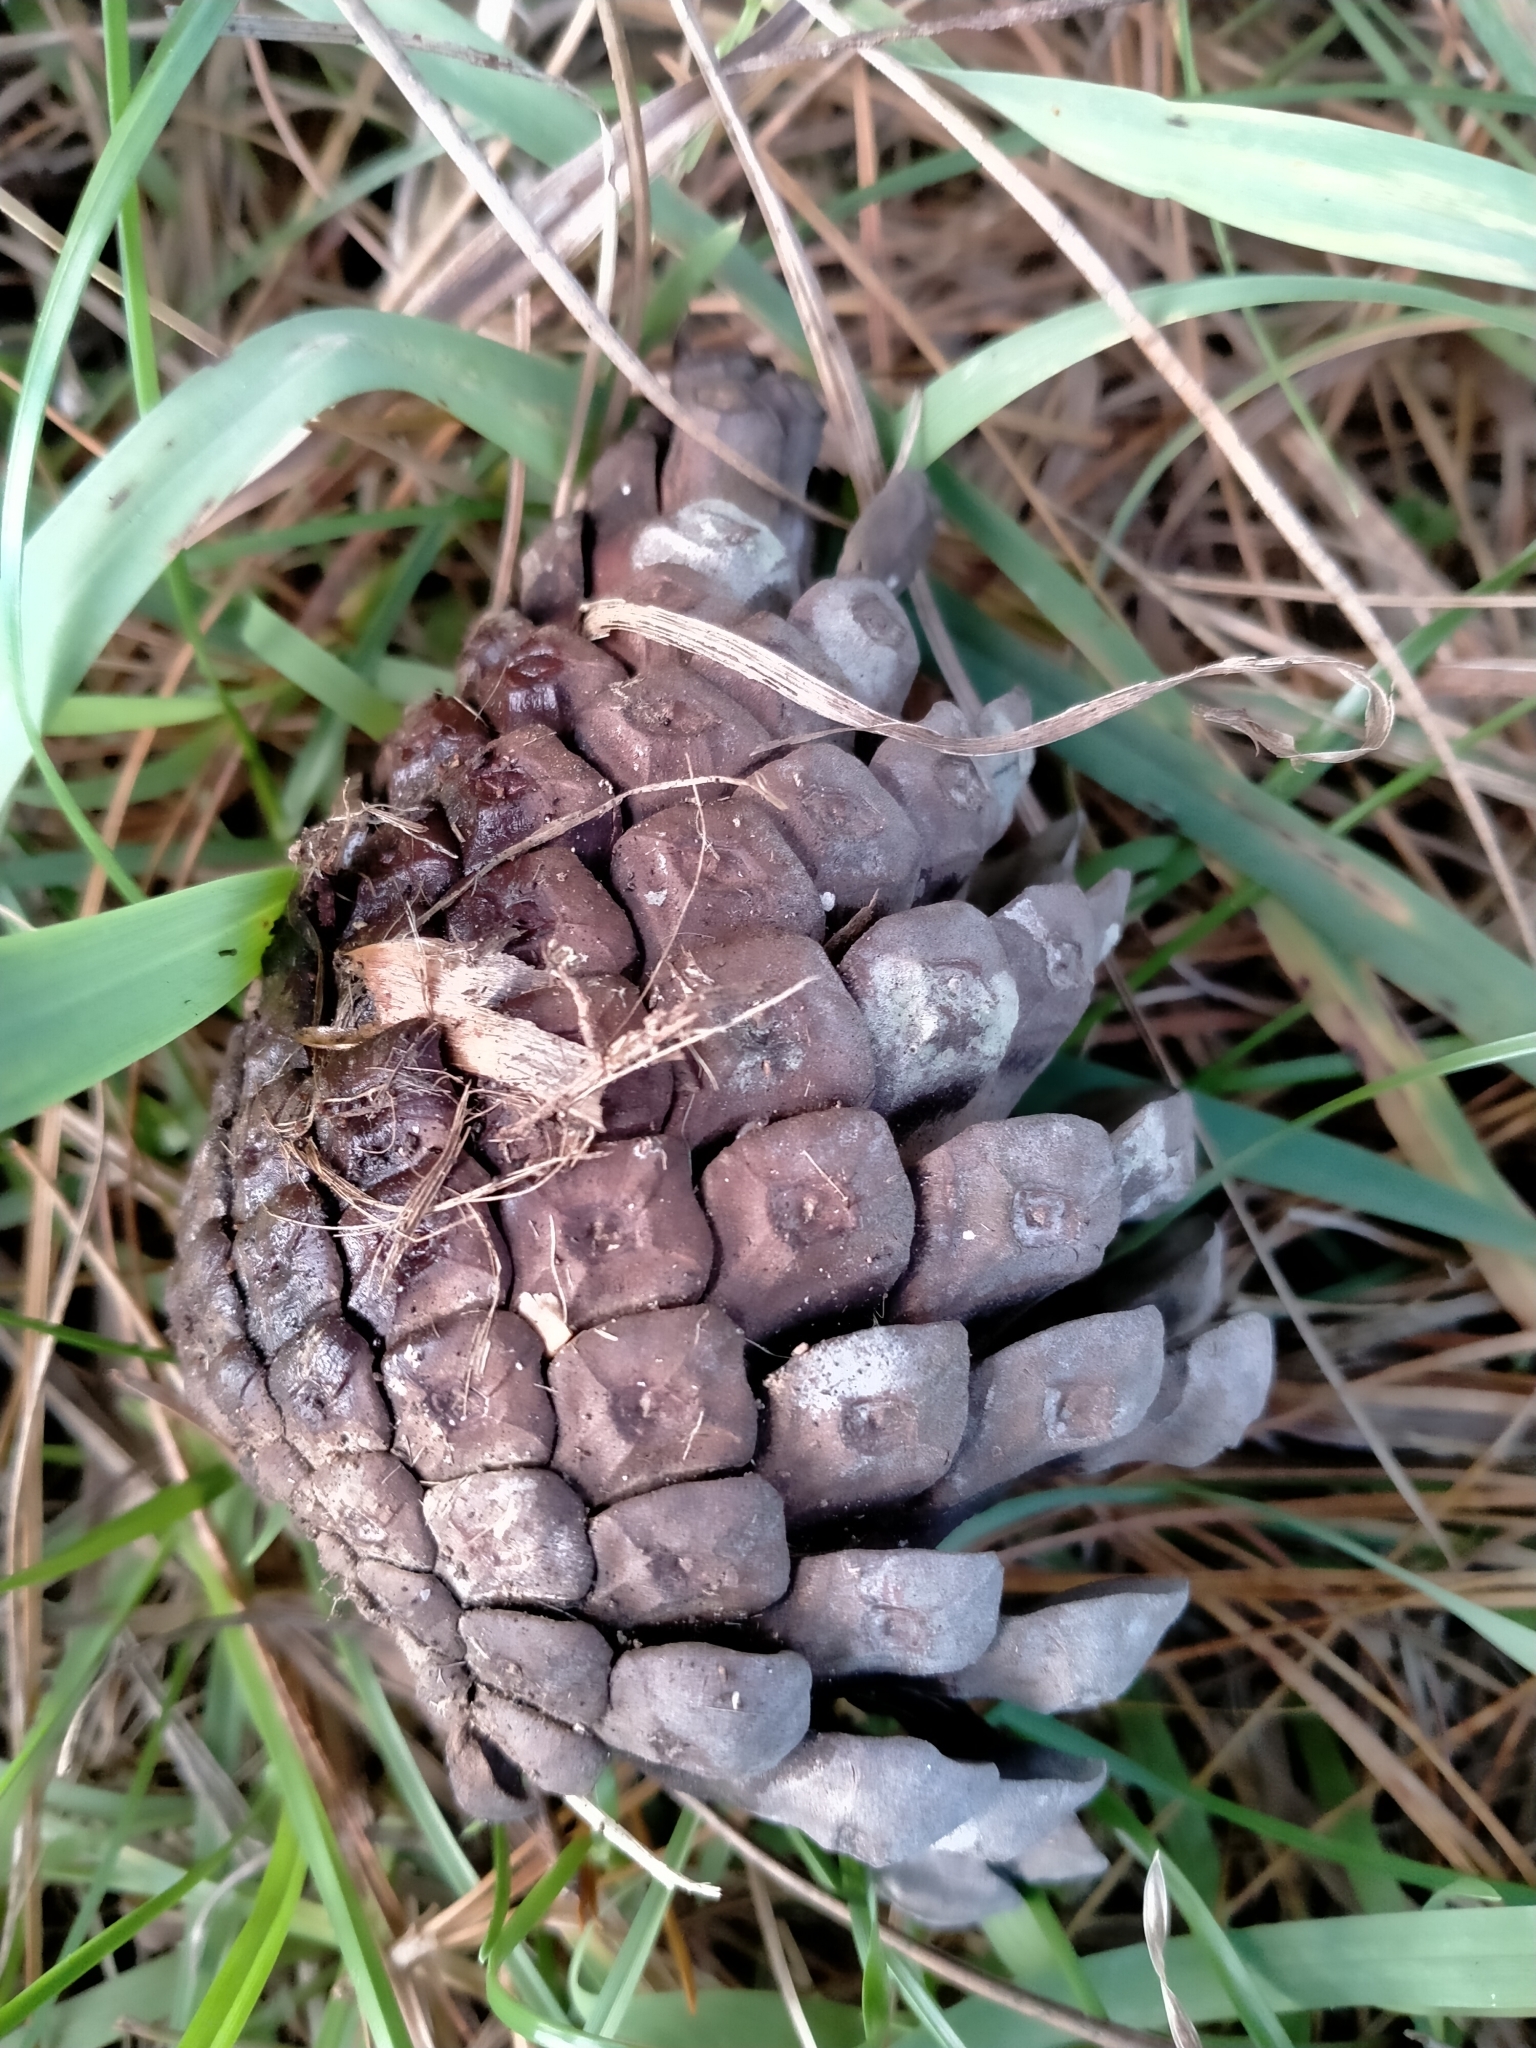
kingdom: Plantae
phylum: Tracheophyta
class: Pinopsida
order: Pinales
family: Pinaceae
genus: Pinus
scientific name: Pinus radiata
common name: Monterey pine
